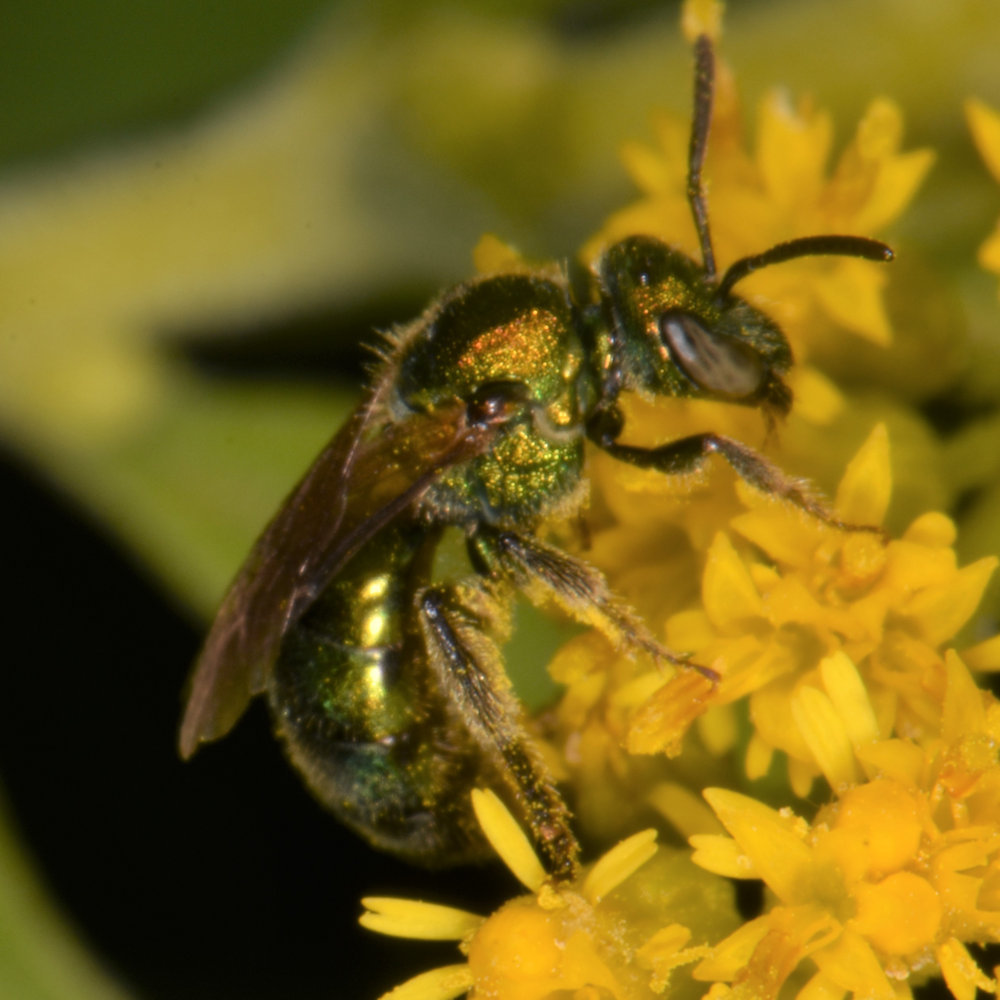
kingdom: Animalia
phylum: Arthropoda
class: Insecta
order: Hymenoptera
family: Halictidae
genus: Augochlorella
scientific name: Augochlorella aurata
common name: Golden sweat bee
